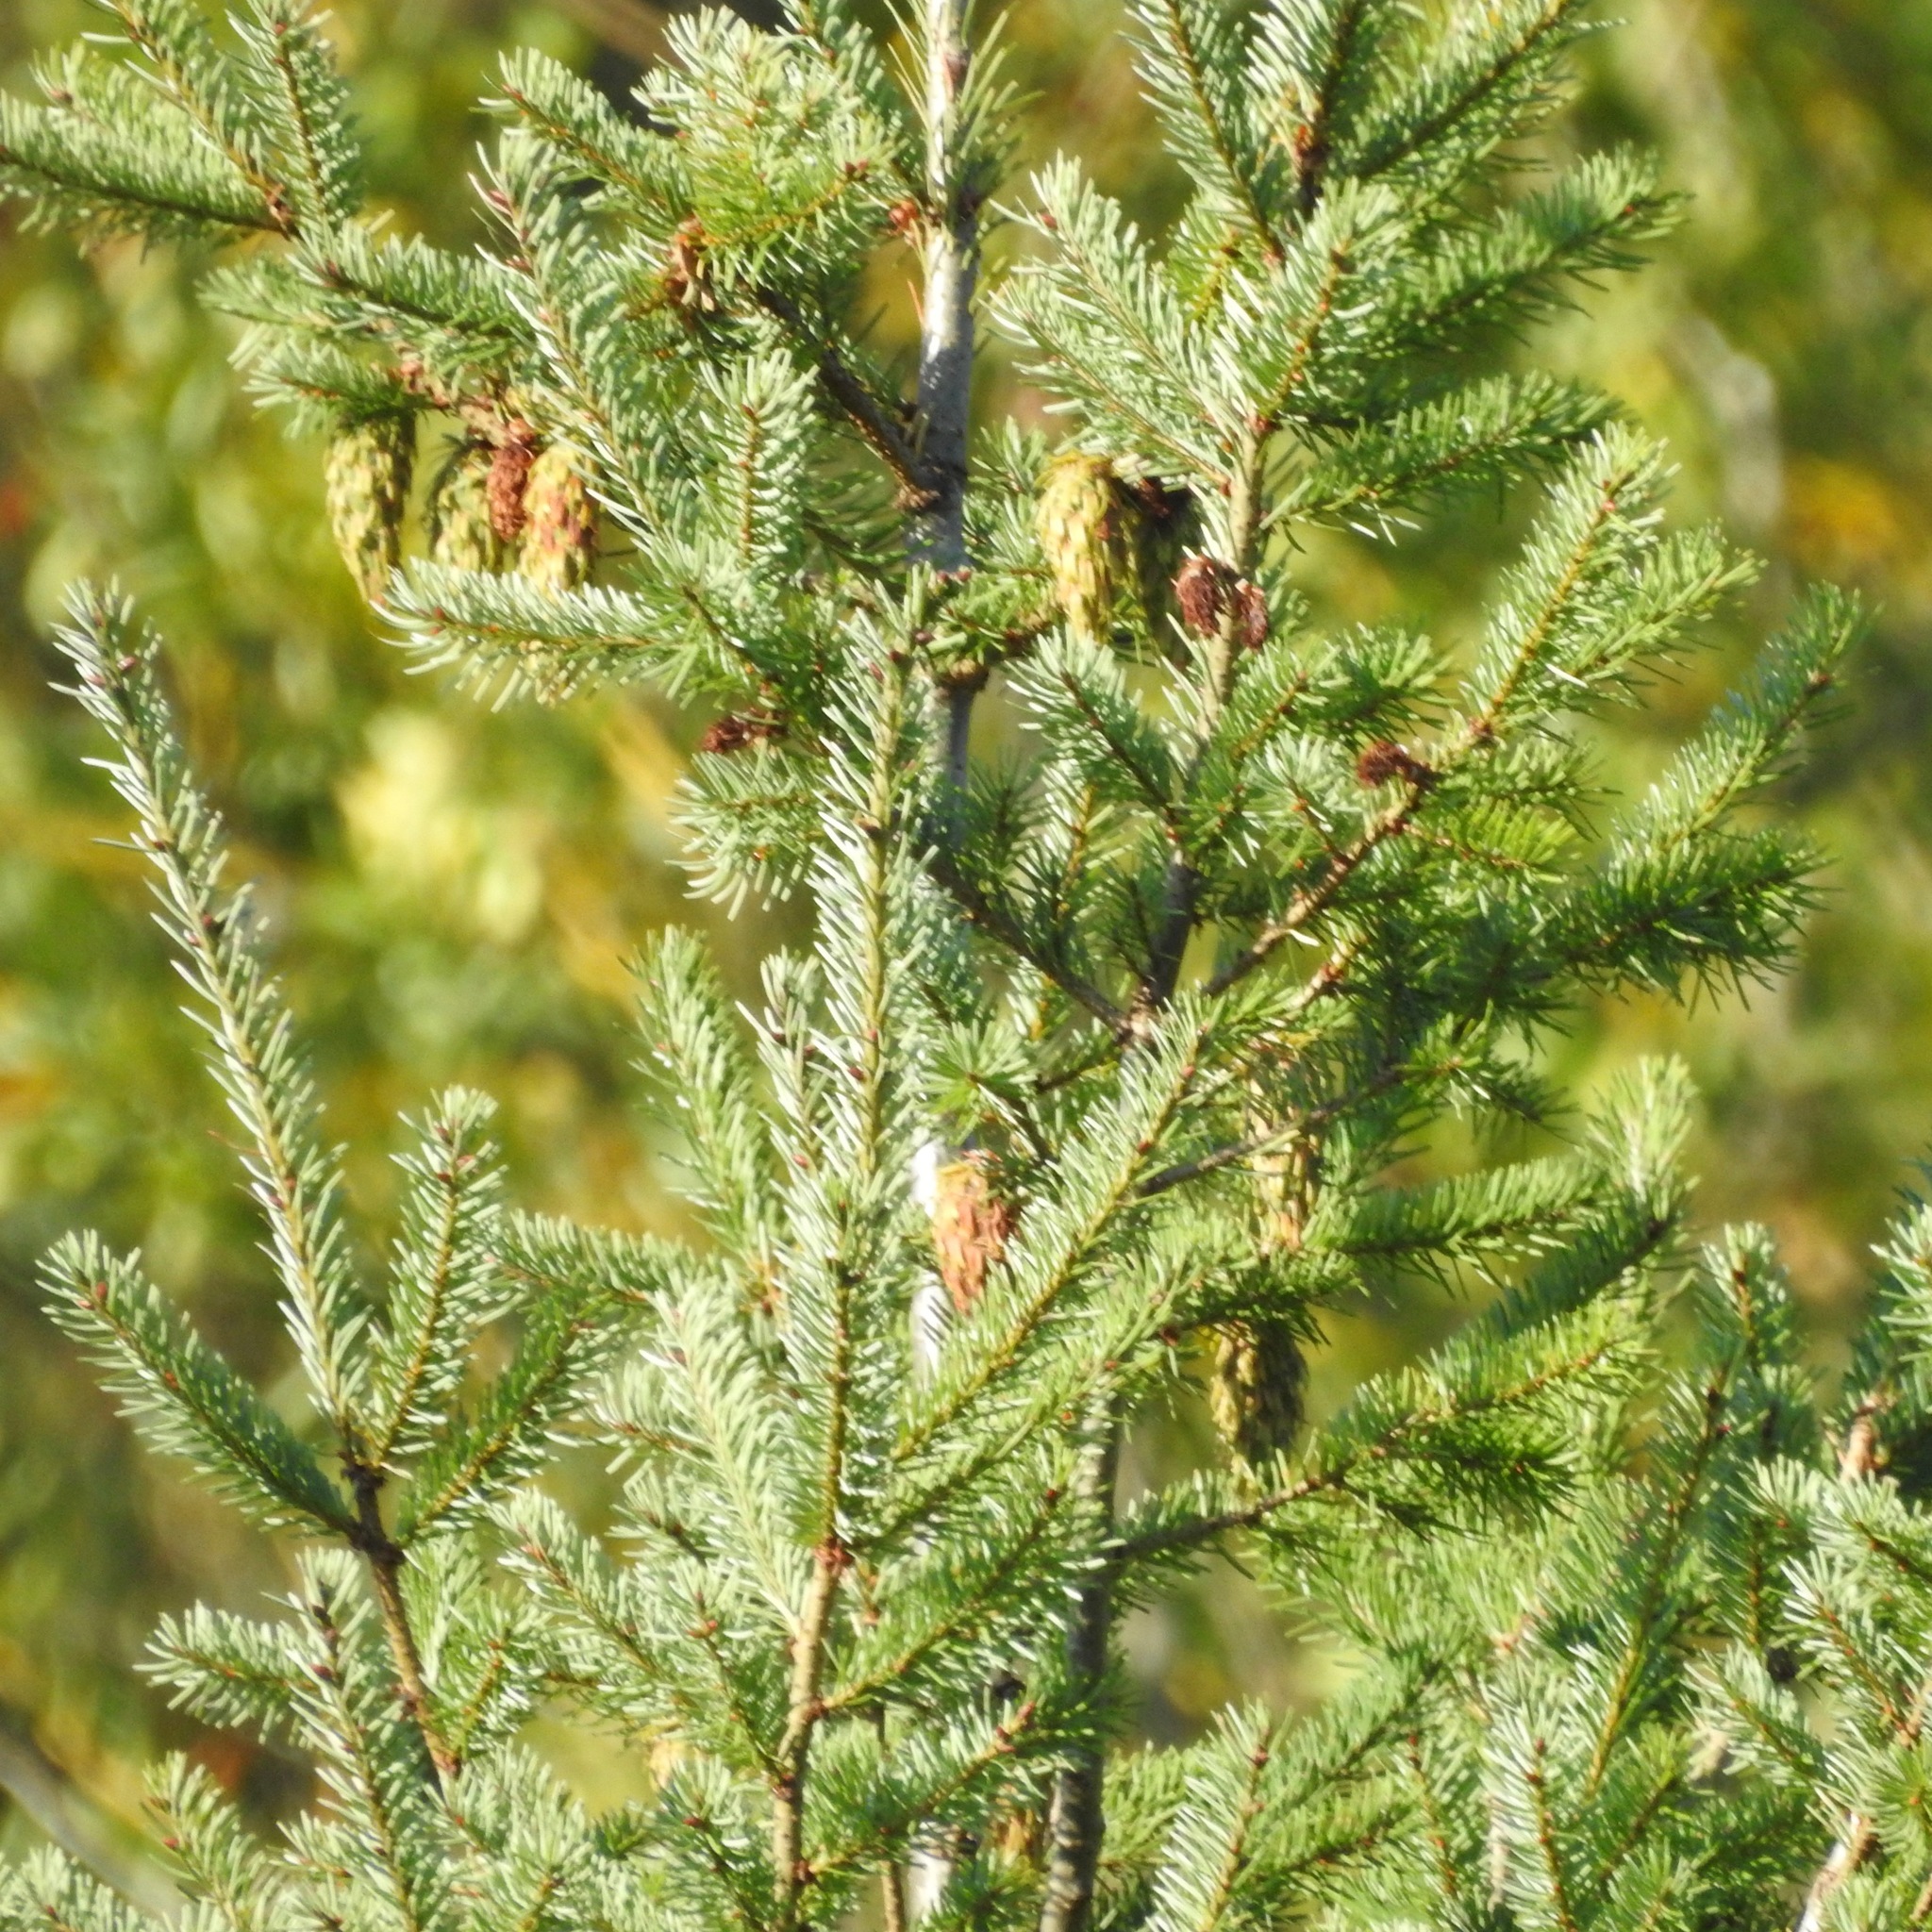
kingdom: Plantae
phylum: Tracheophyta
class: Pinopsida
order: Pinales
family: Pinaceae
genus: Pseudotsuga
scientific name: Pseudotsuga menziesii
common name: Douglas fir
